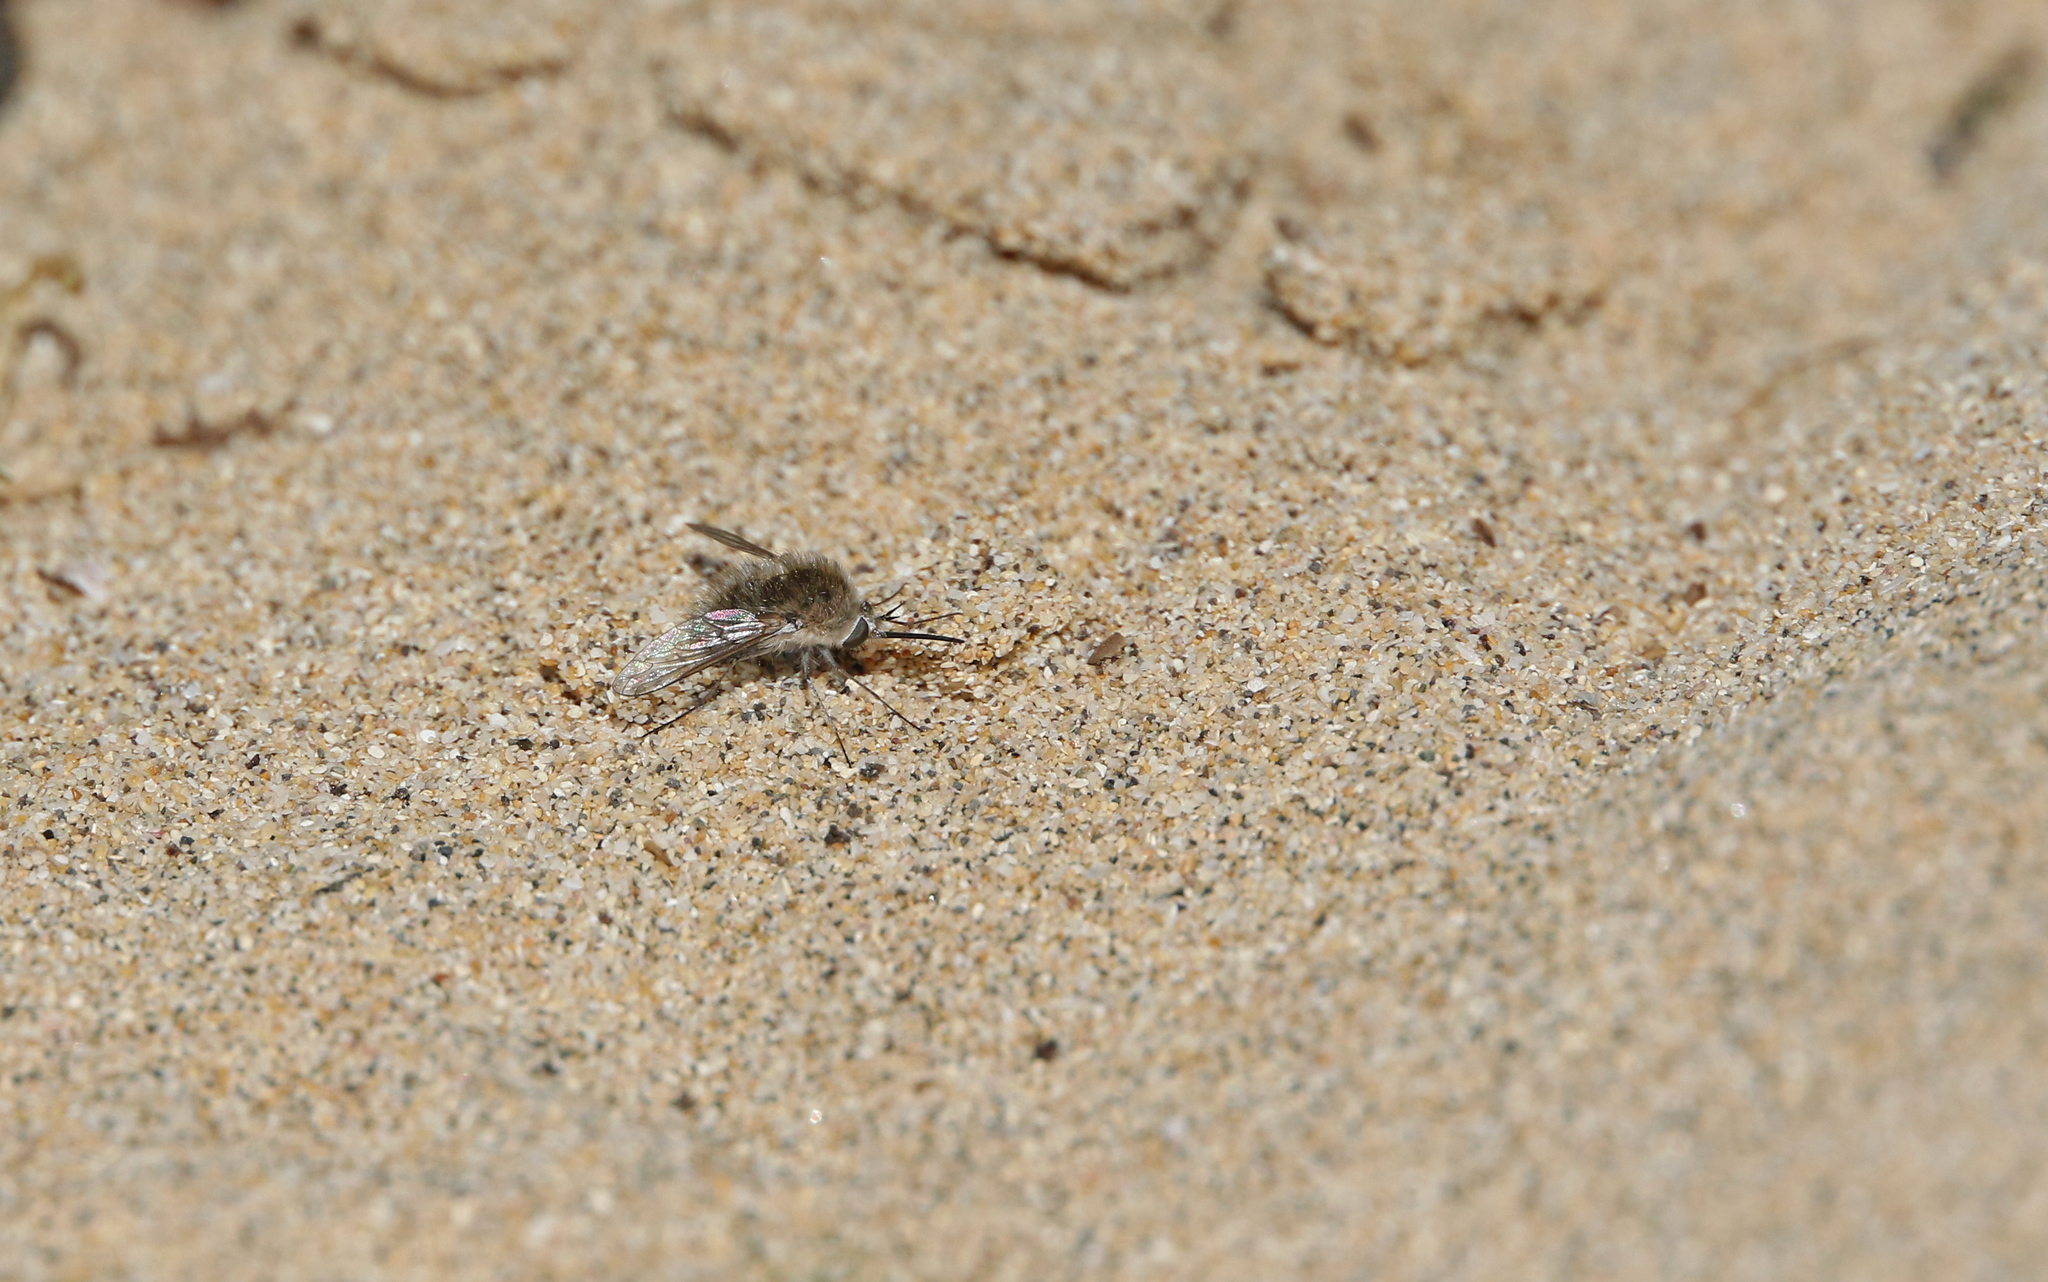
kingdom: Animalia
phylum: Arthropoda
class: Insecta
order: Diptera
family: Bombyliidae
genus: Bombylius
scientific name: Bombylius oceanus
